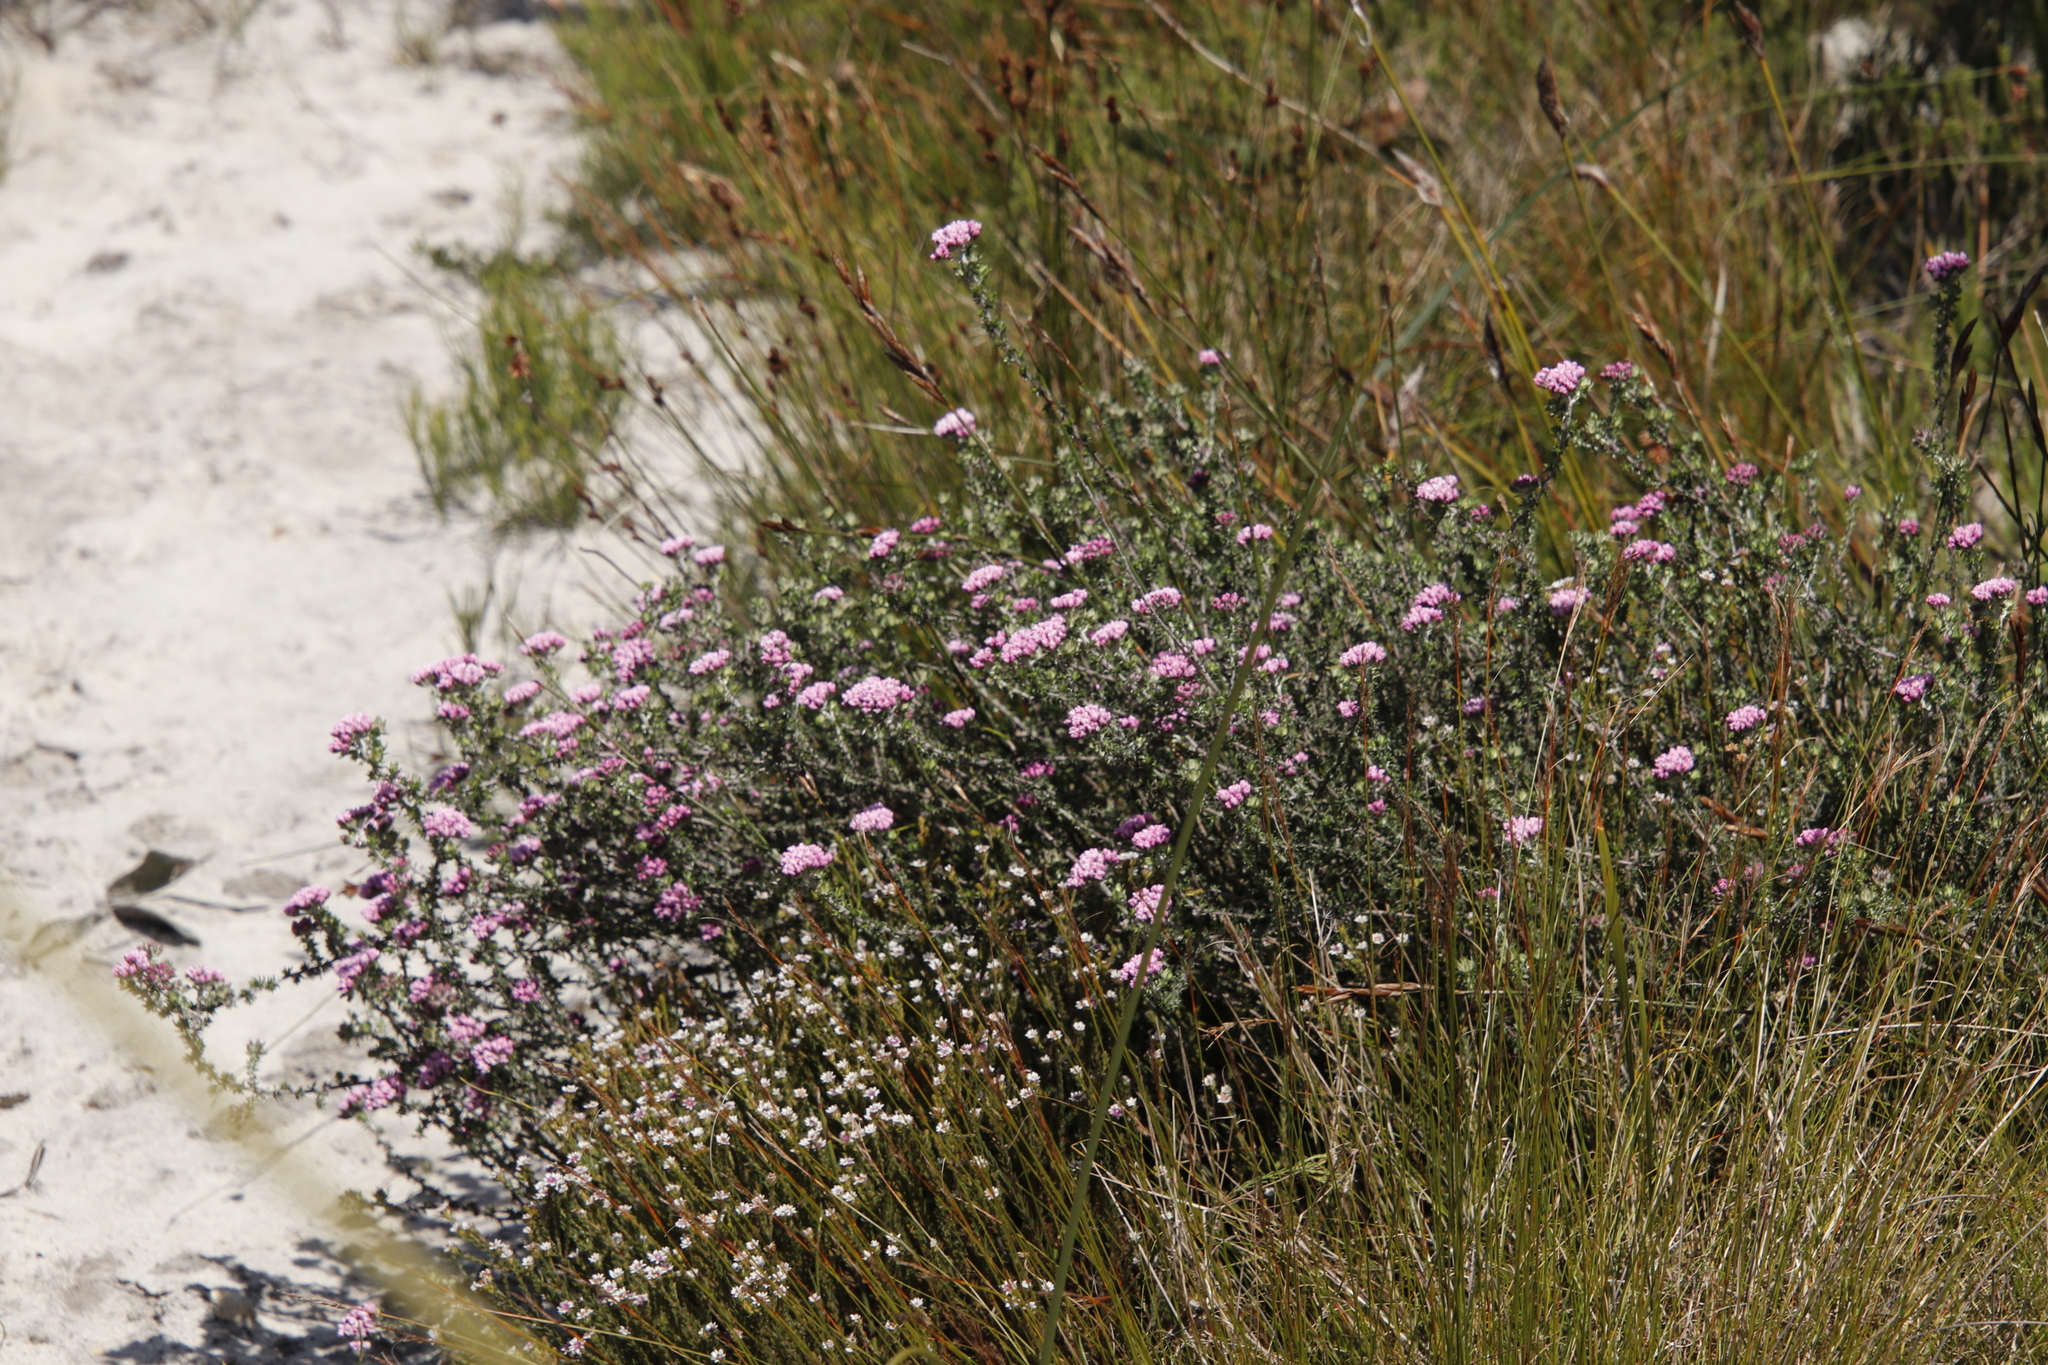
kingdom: Plantae
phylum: Tracheophyta
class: Magnoliopsida
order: Asterales
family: Asteraceae
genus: Metalasia
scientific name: Metalasia erubescens
